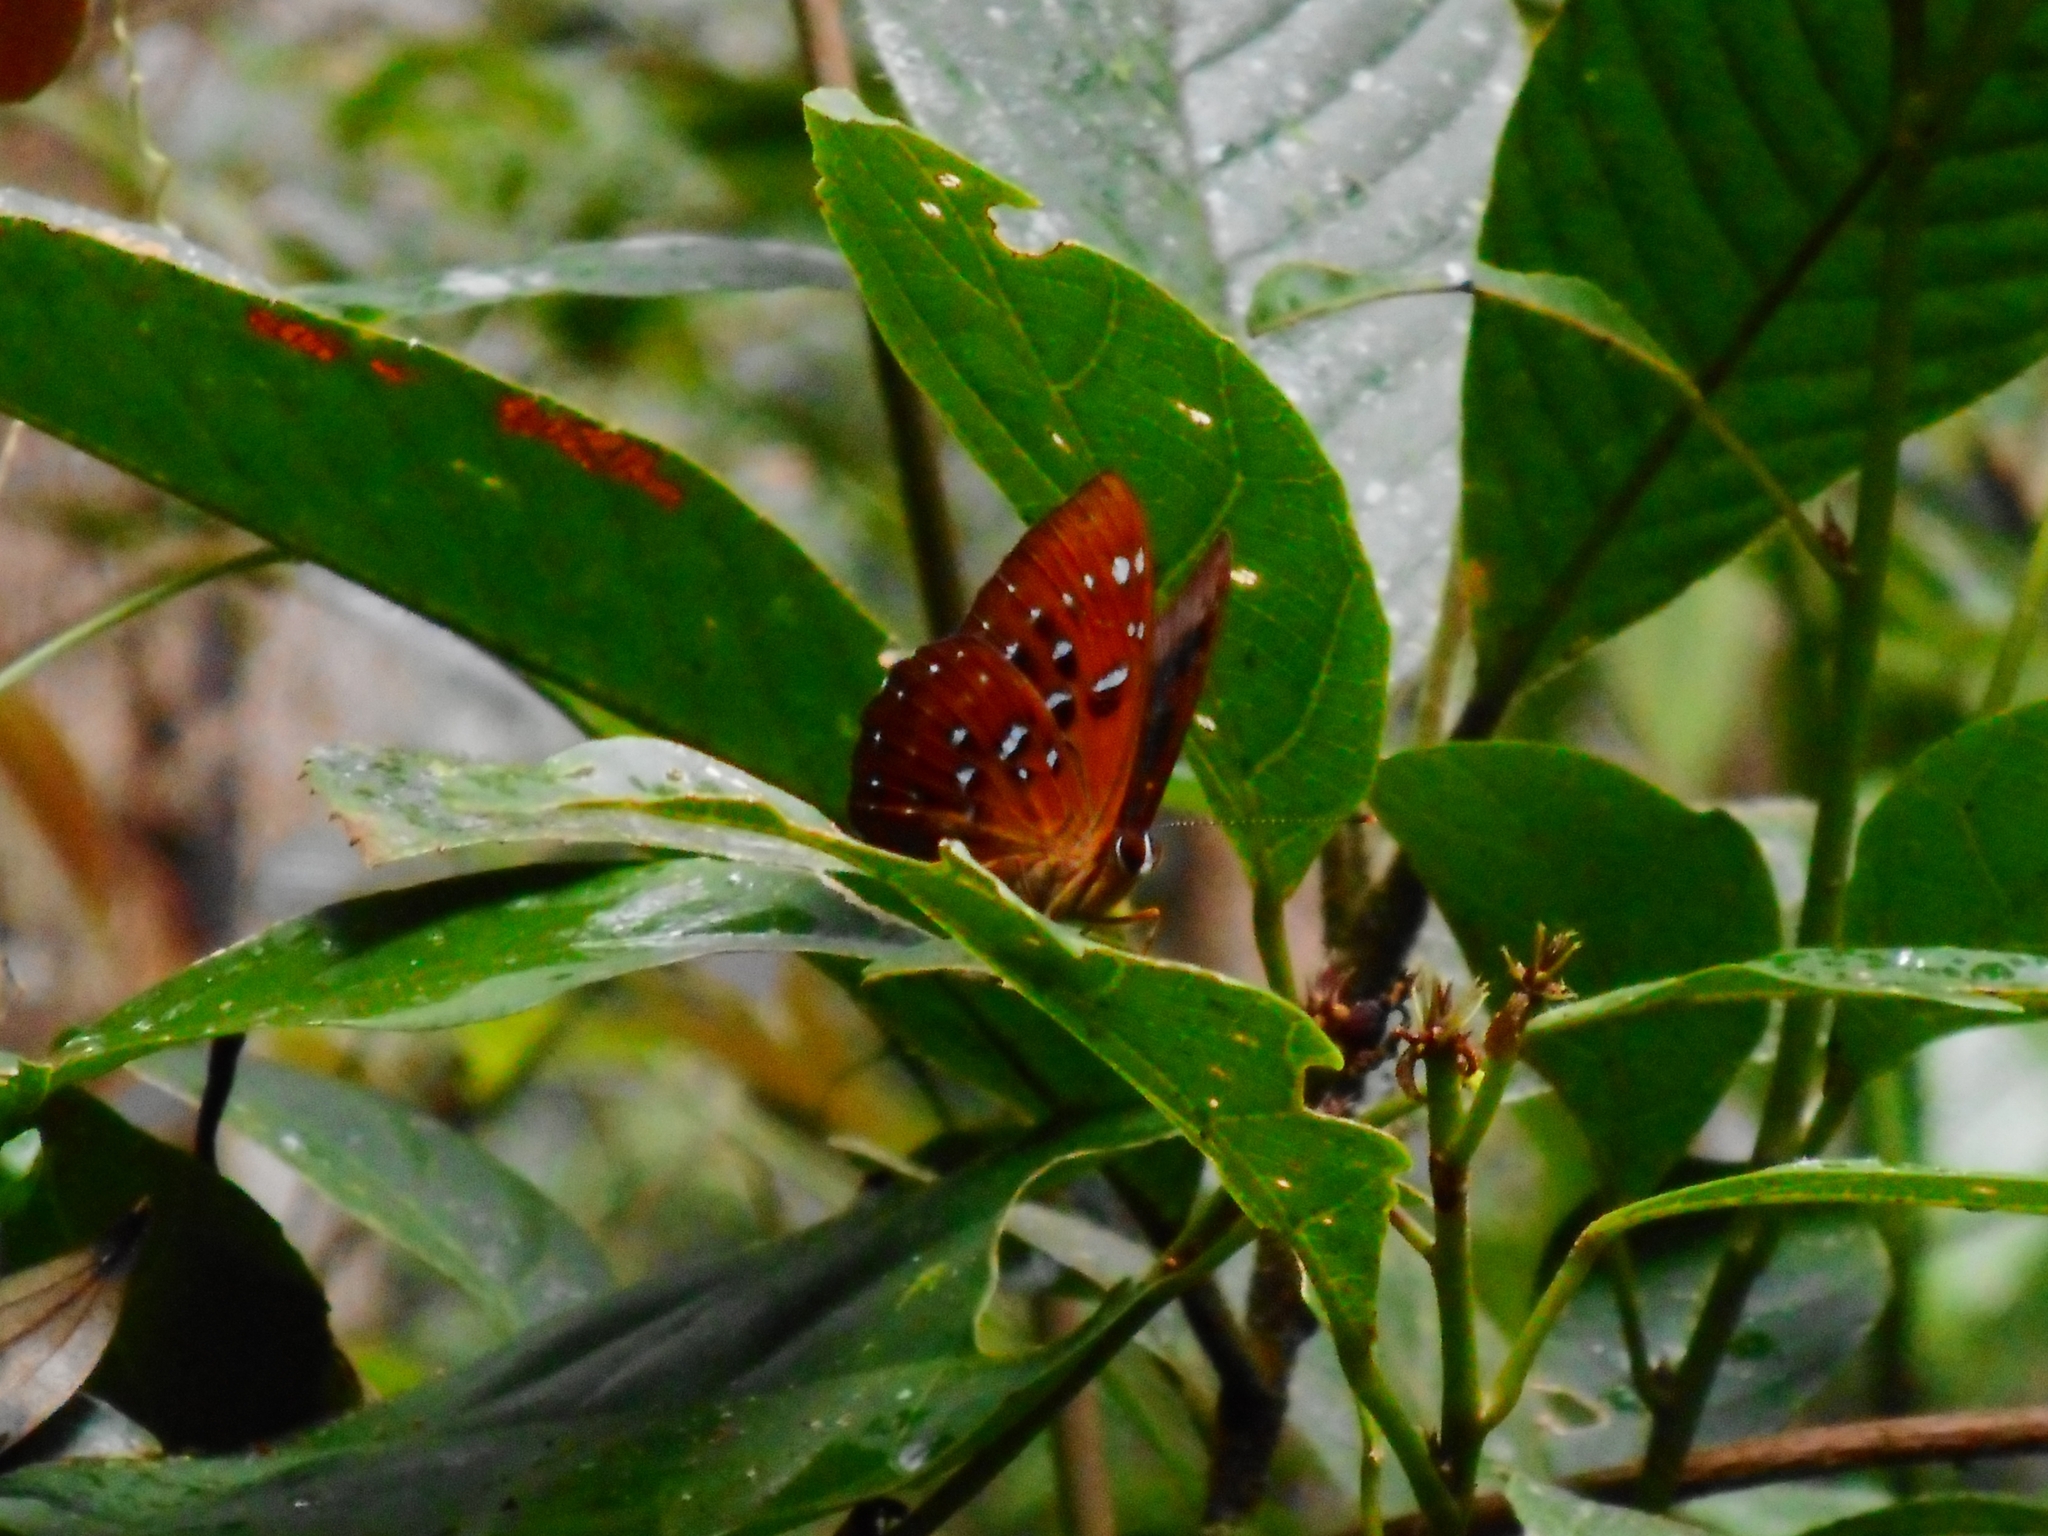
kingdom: Animalia
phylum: Arthropoda
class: Insecta
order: Lepidoptera
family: Riodinidae
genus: Zemeros
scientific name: Zemeros flegyas
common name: Punchinello
